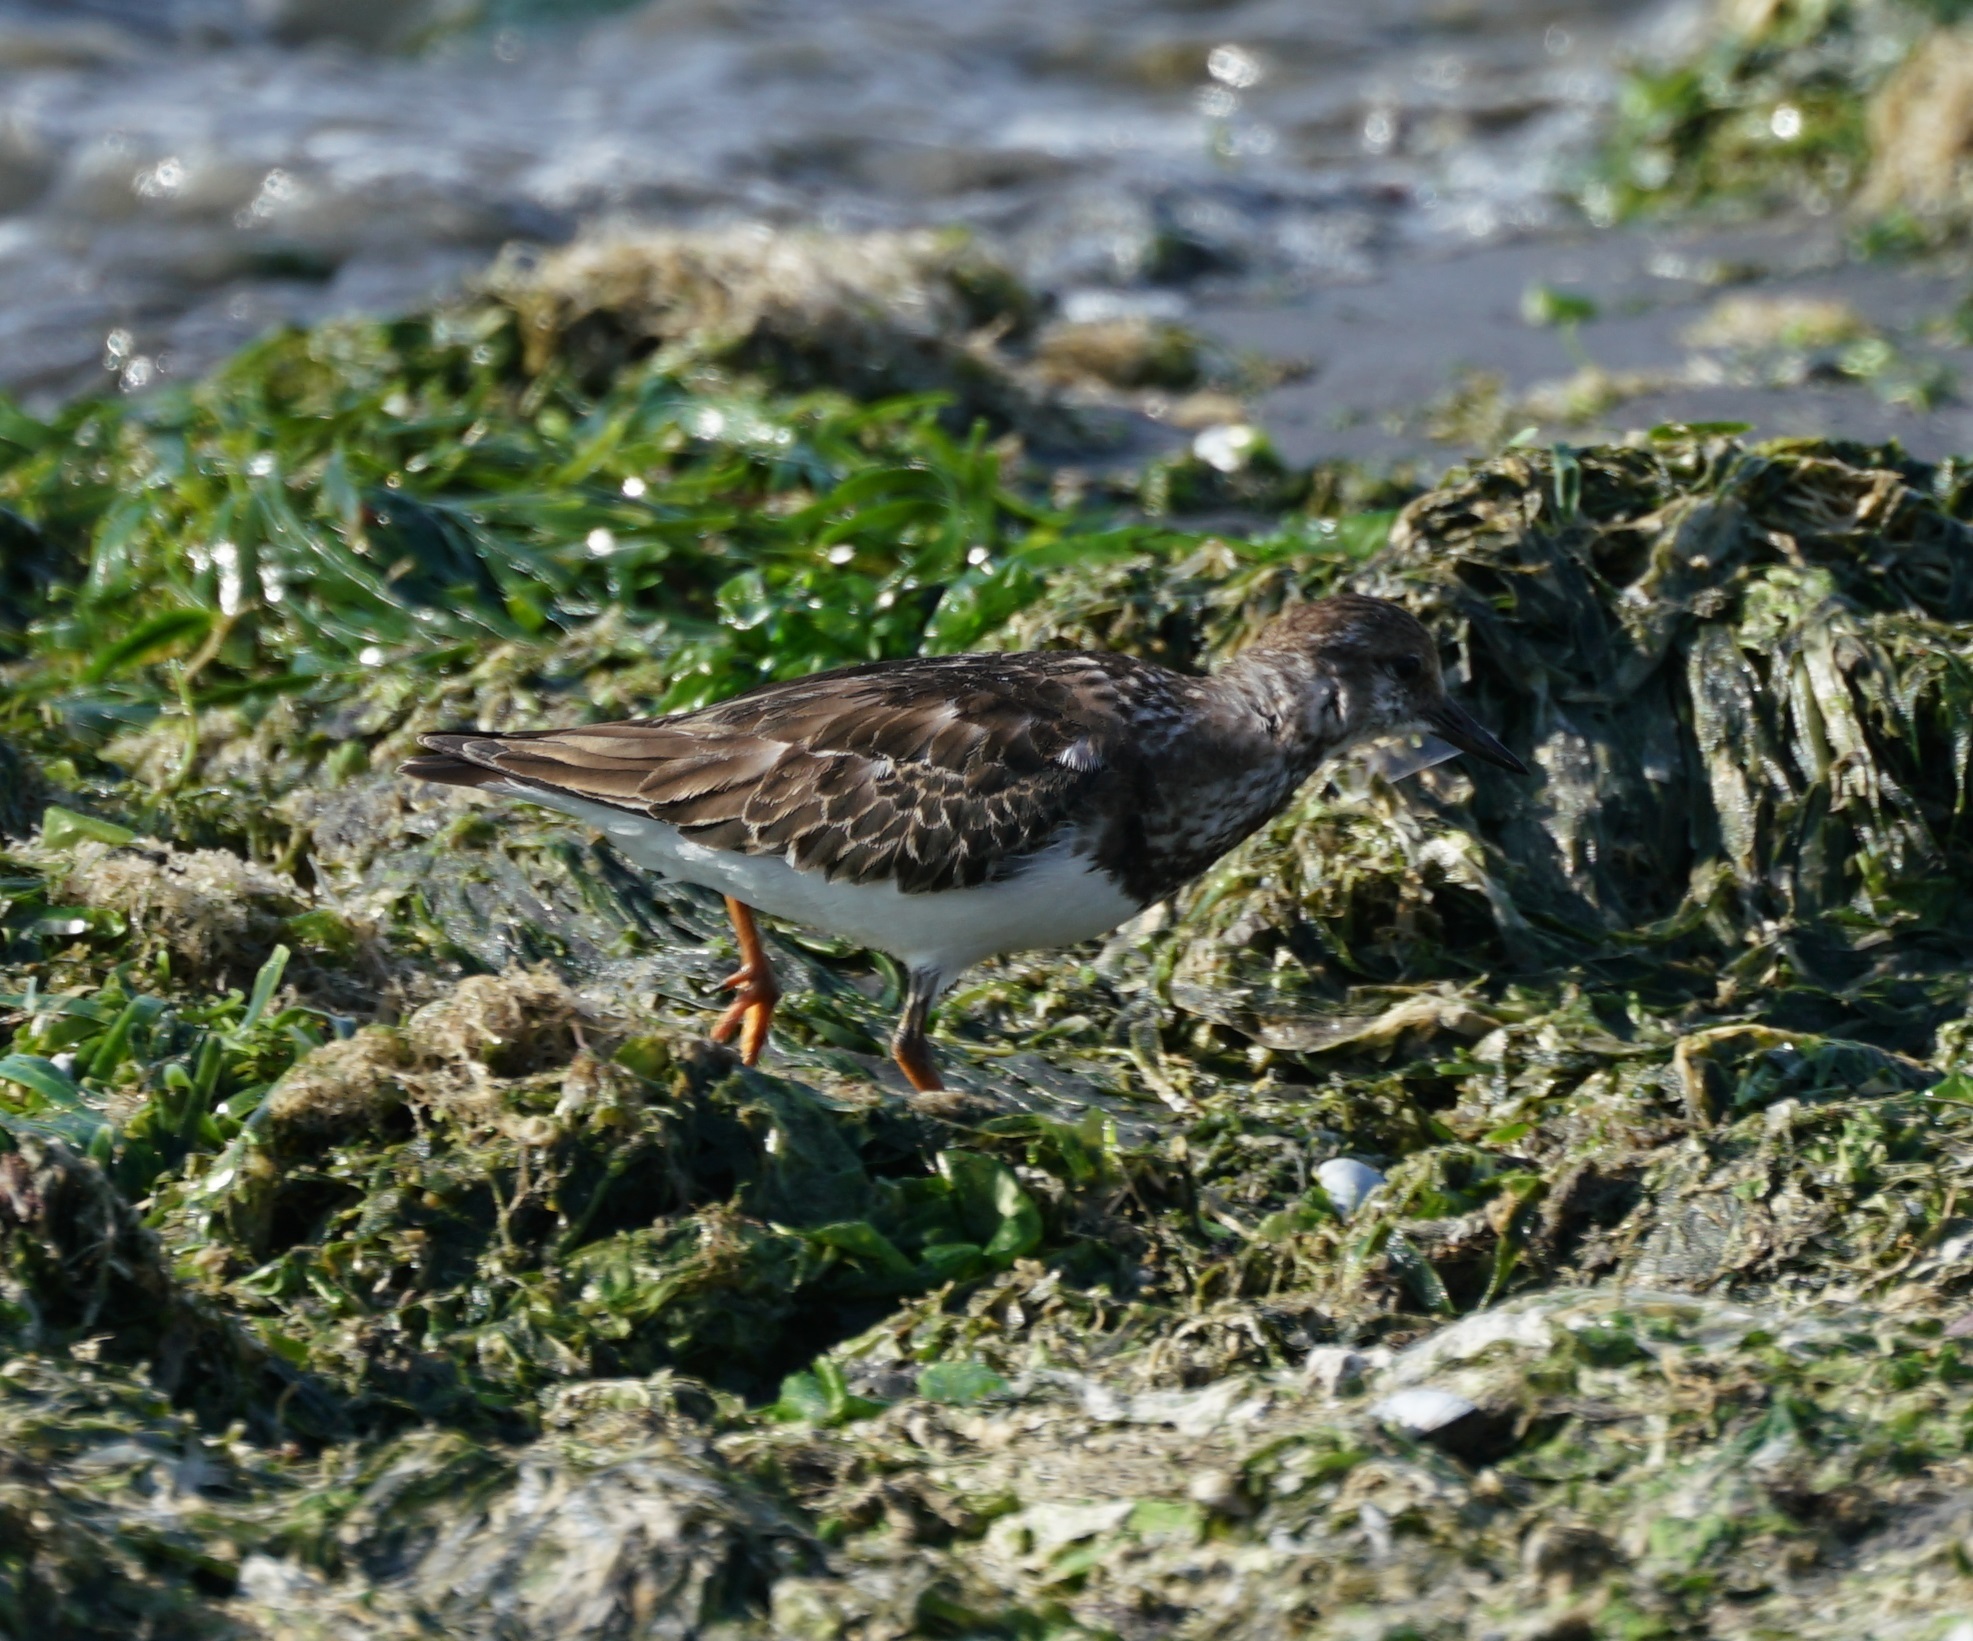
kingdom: Animalia
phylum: Chordata
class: Aves
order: Charadriiformes
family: Scolopacidae
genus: Arenaria
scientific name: Arenaria interpres
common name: Ruddy turnstone
